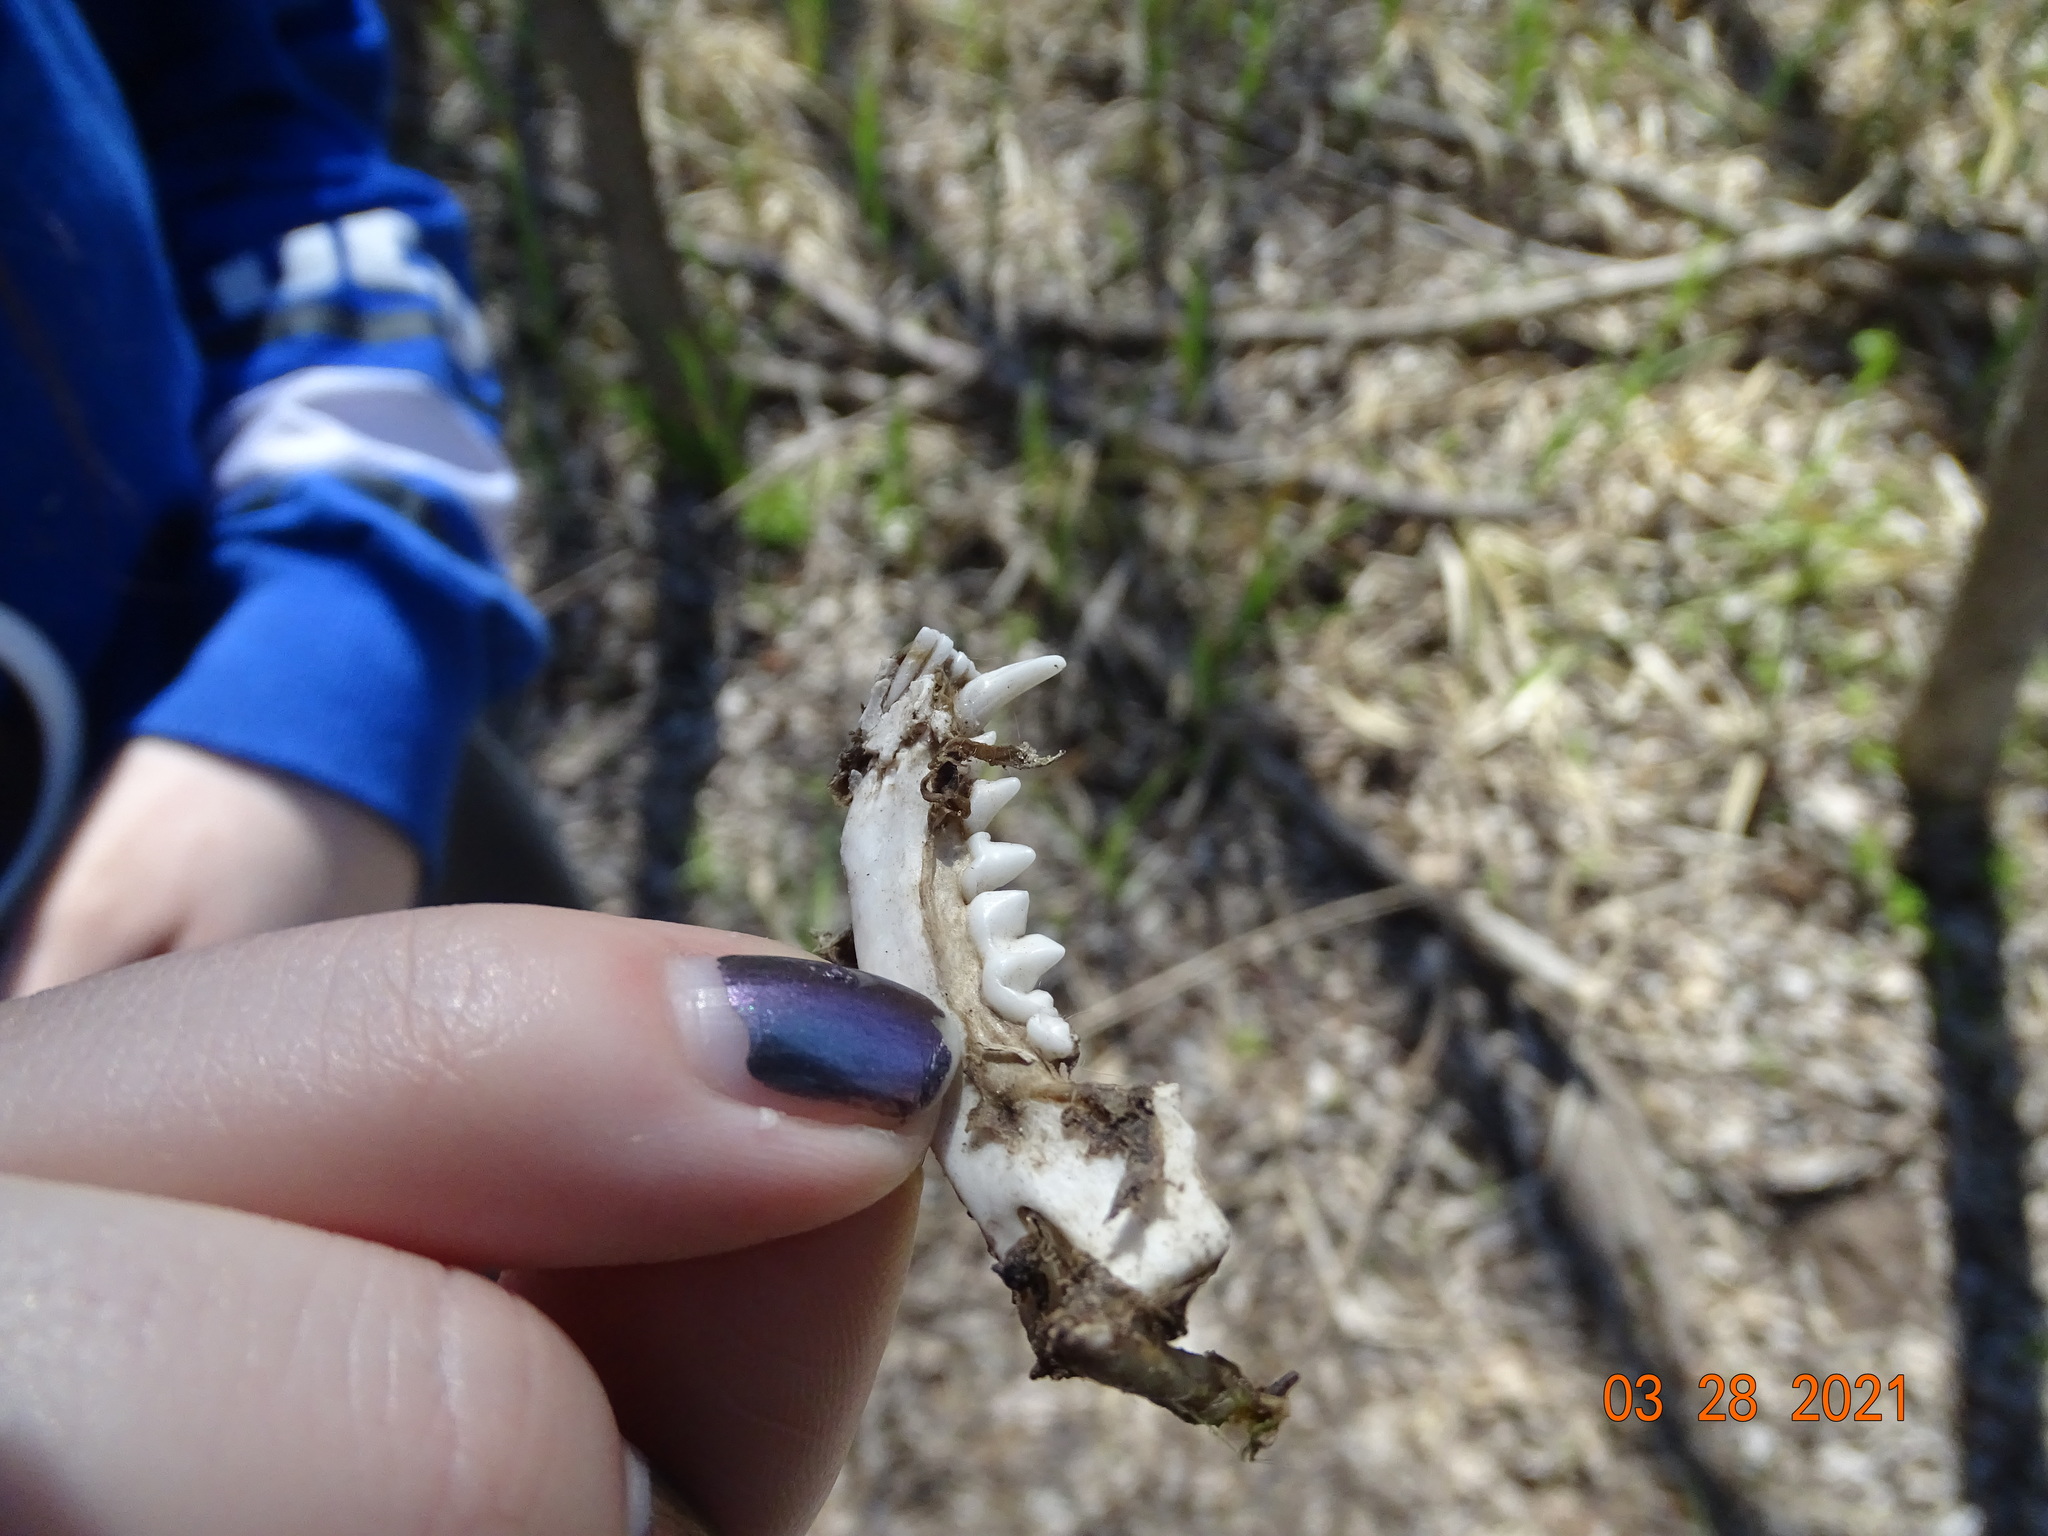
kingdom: Animalia
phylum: Chordata
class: Mammalia
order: Carnivora
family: Mephitidae
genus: Mephitis
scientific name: Mephitis mephitis
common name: Striped skunk
